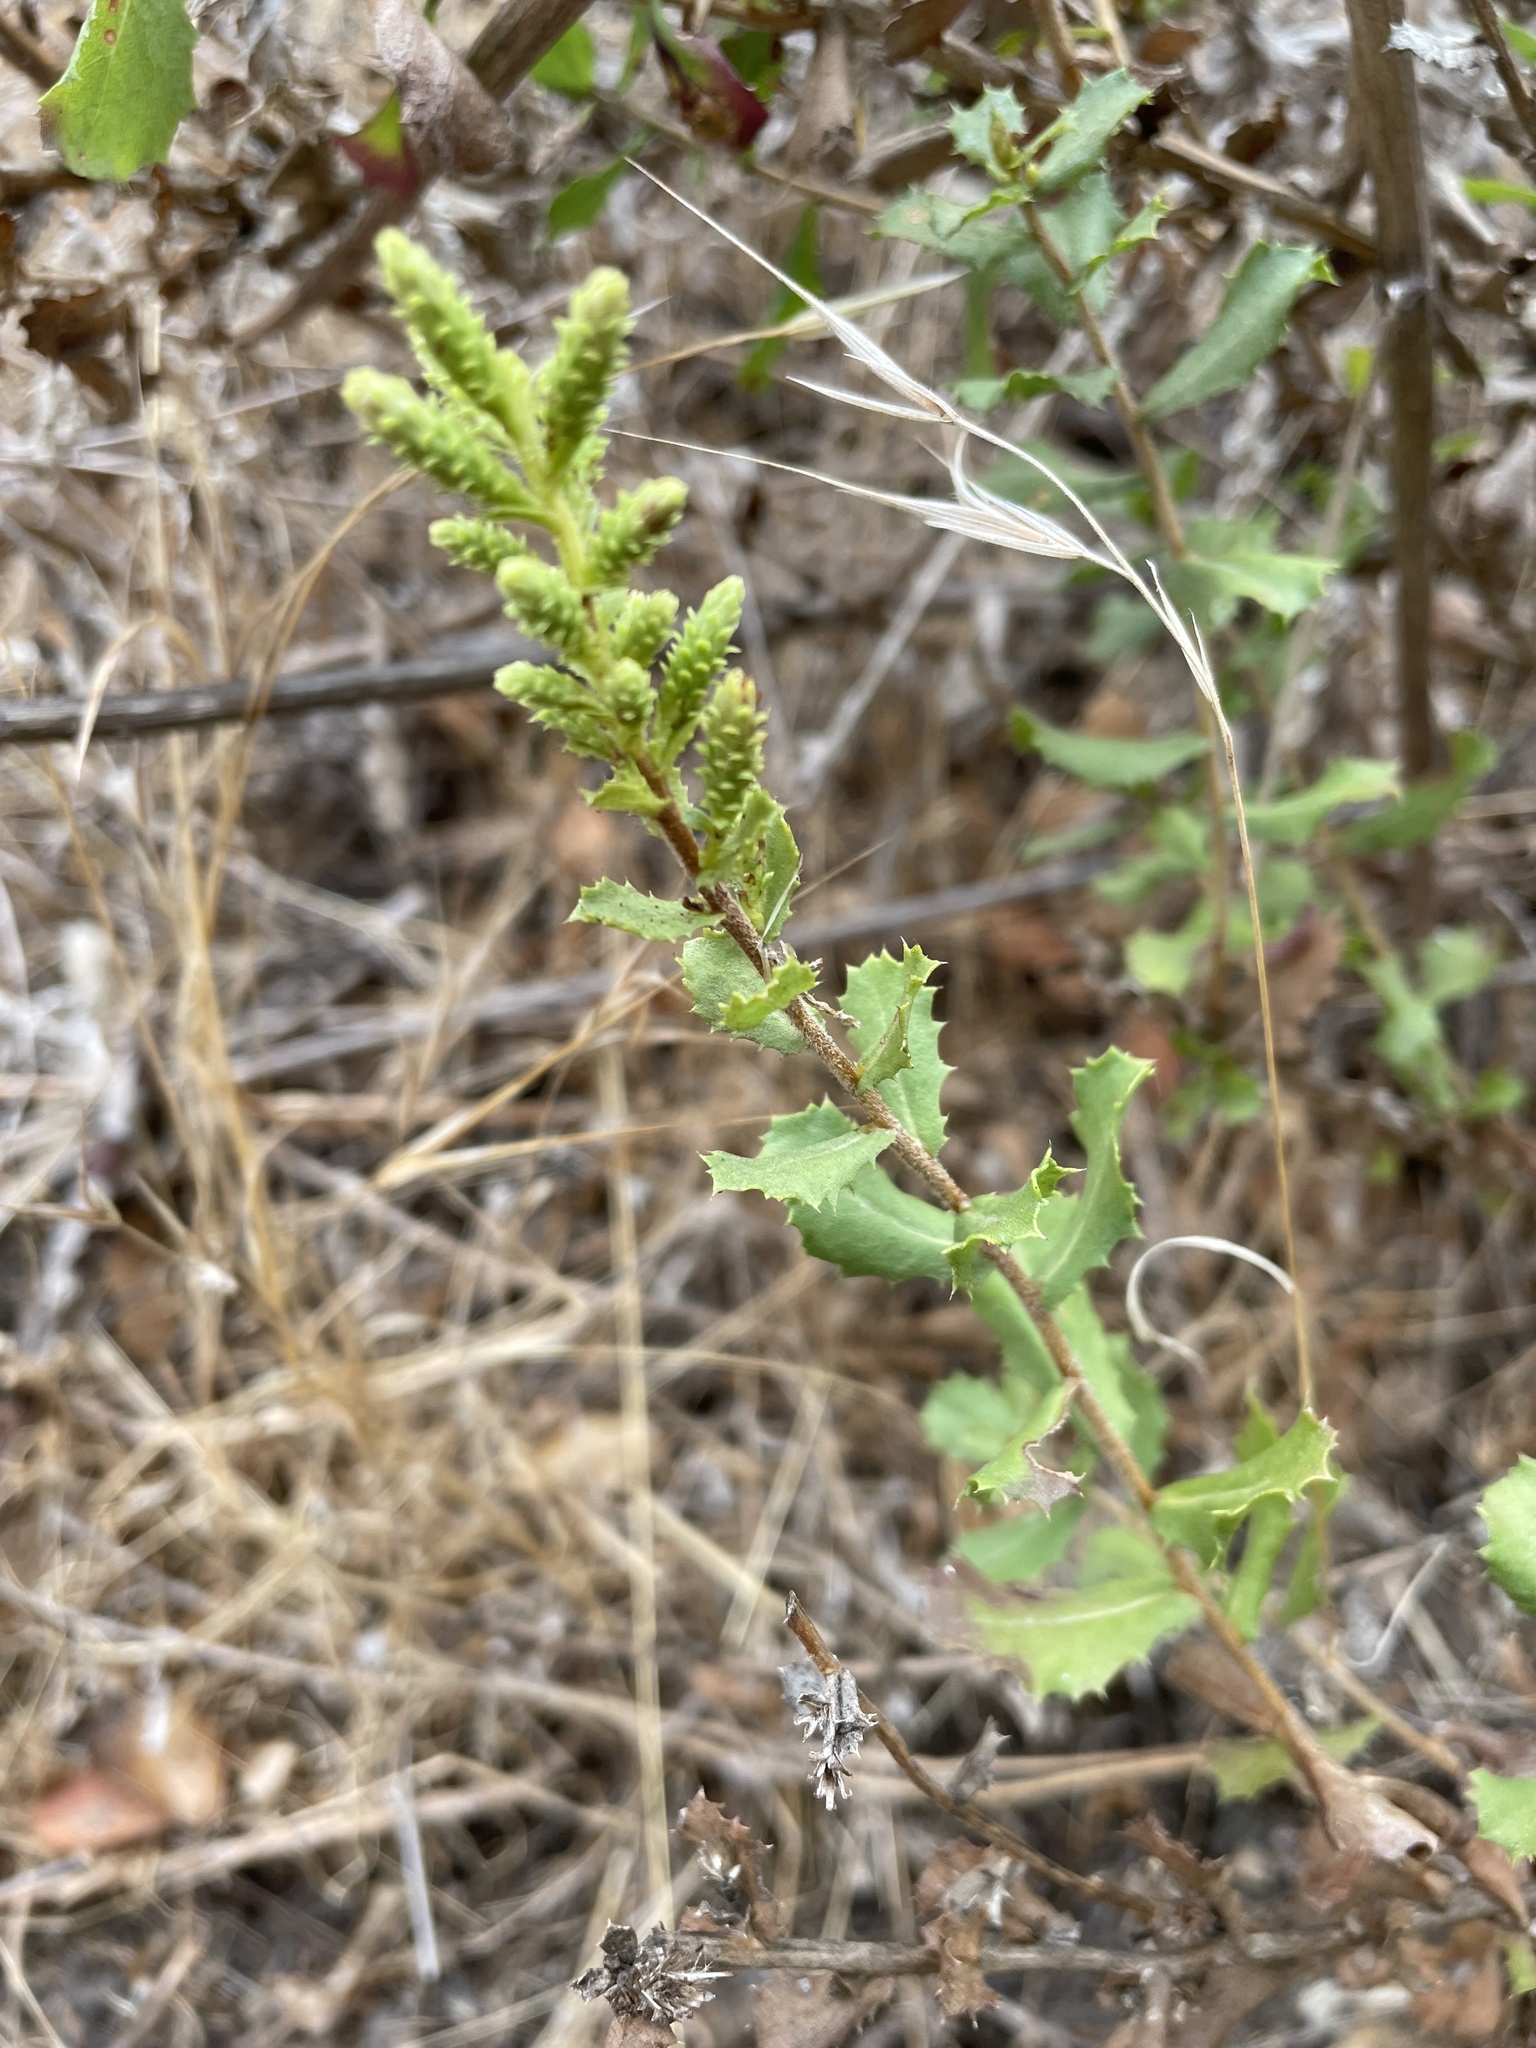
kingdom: Plantae
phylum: Tracheophyta
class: Magnoliopsida
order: Asterales
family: Asteraceae
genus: Hazardia
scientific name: Hazardia squarrosa
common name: Saw-tooth goldenbush
